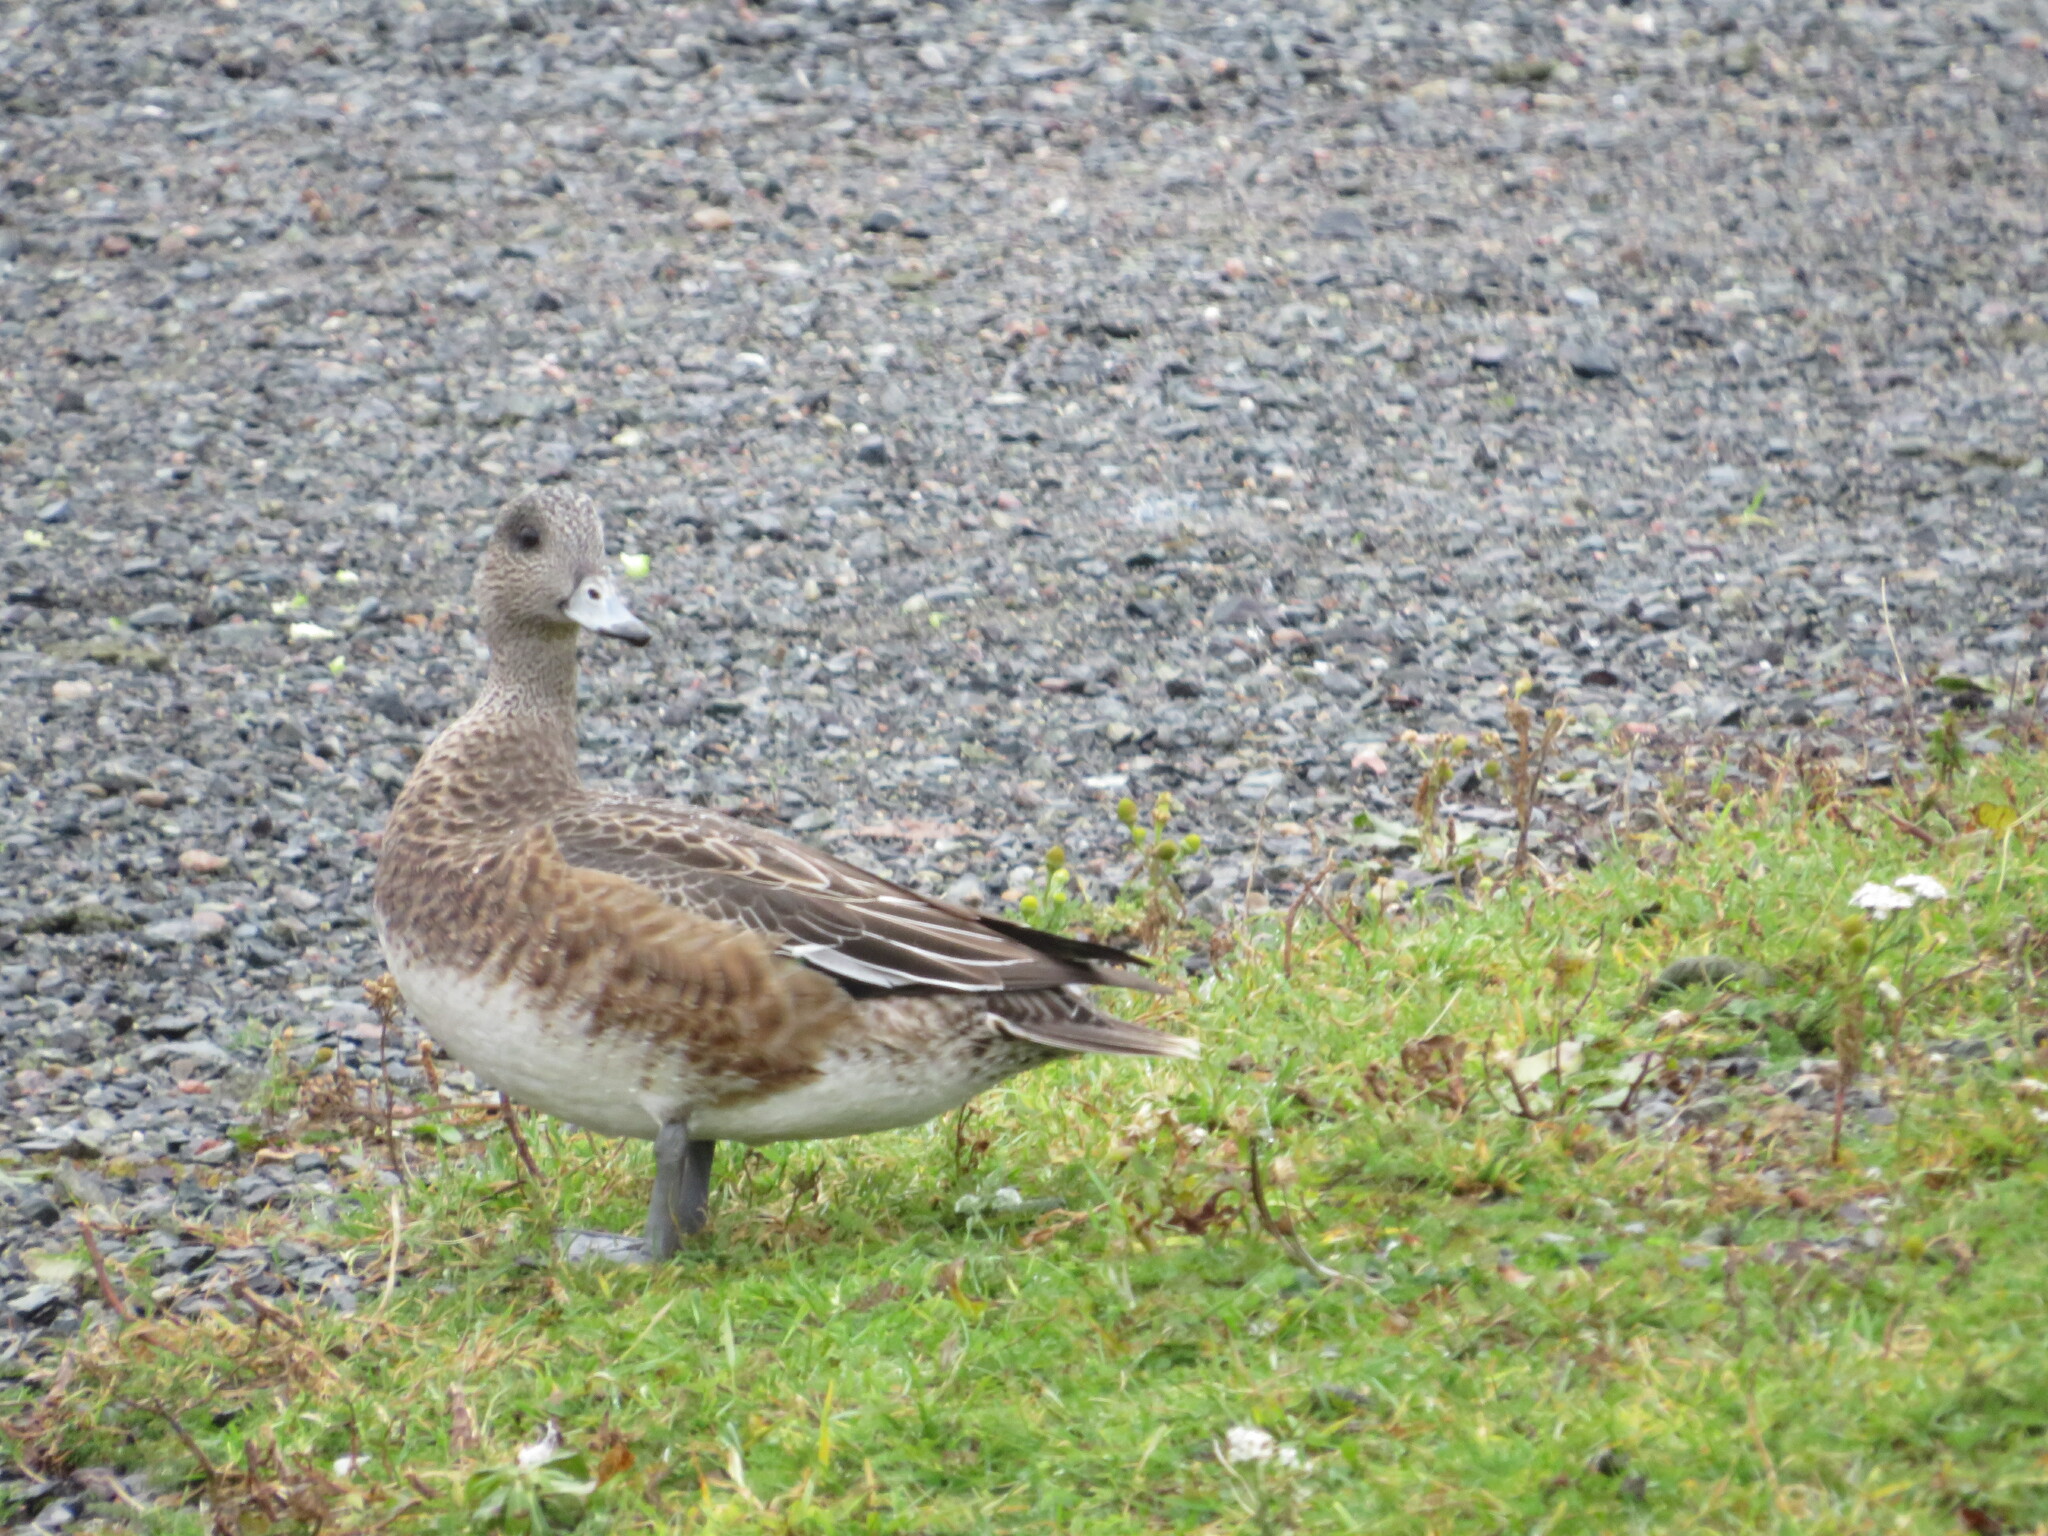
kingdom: Animalia
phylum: Chordata
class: Aves
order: Anseriformes
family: Anatidae
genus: Mareca
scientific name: Mareca americana
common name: American wigeon
